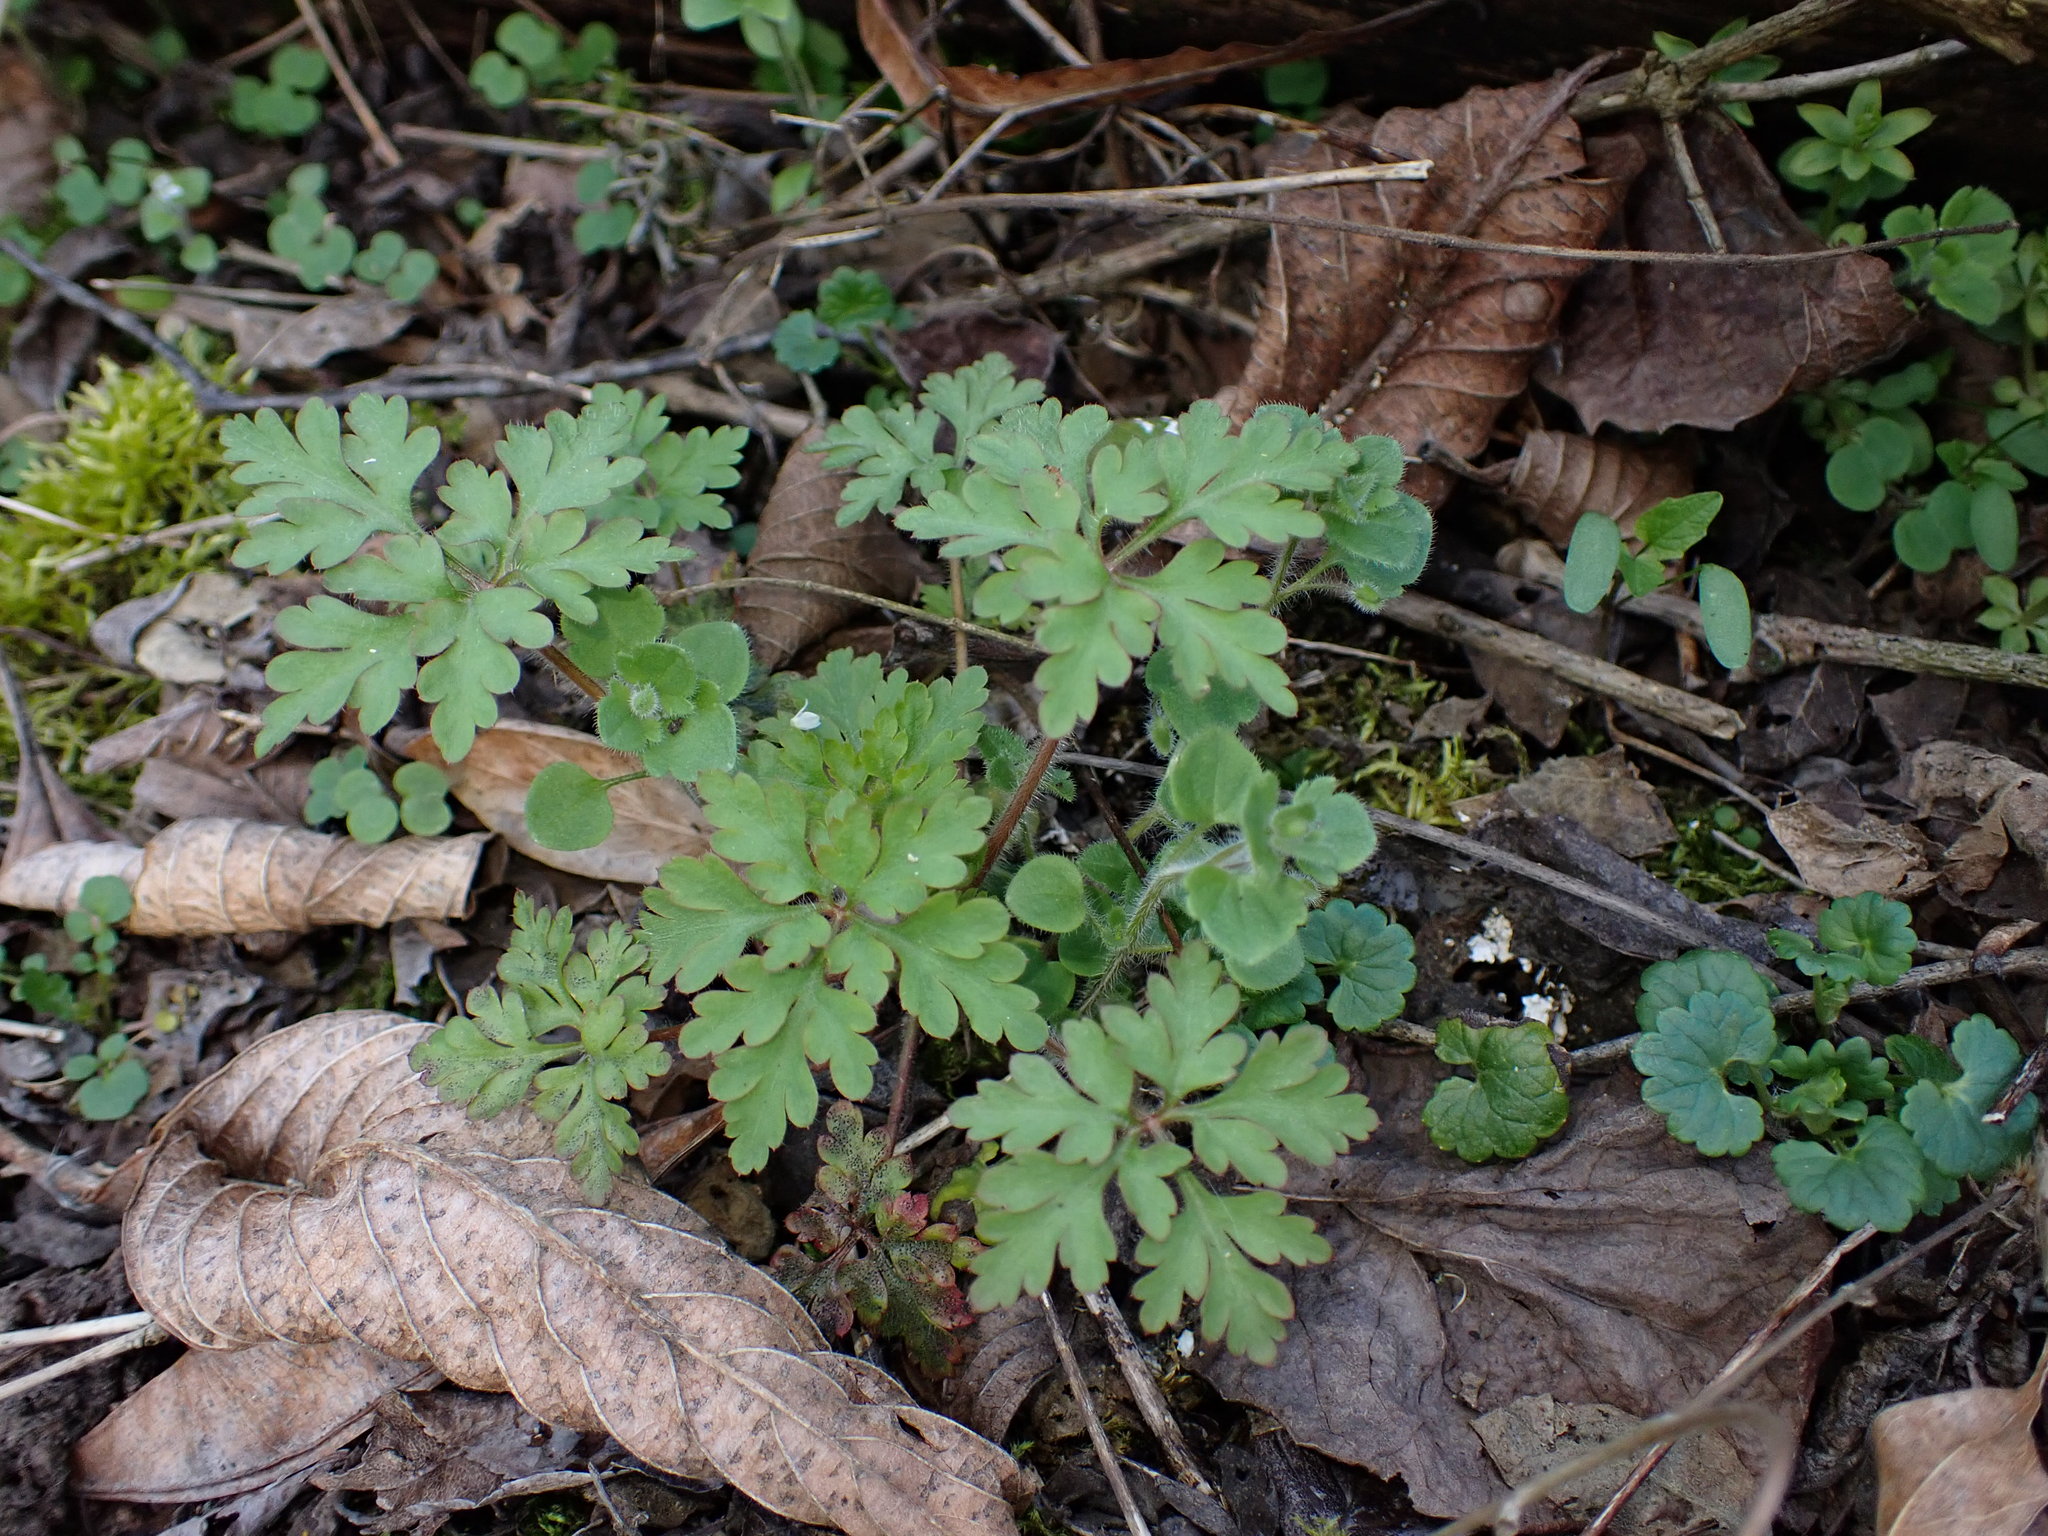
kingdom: Plantae
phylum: Tracheophyta
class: Magnoliopsida
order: Geraniales
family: Geraniaceae
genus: Geranium
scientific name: Geranium robertianum
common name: Herb-robert
